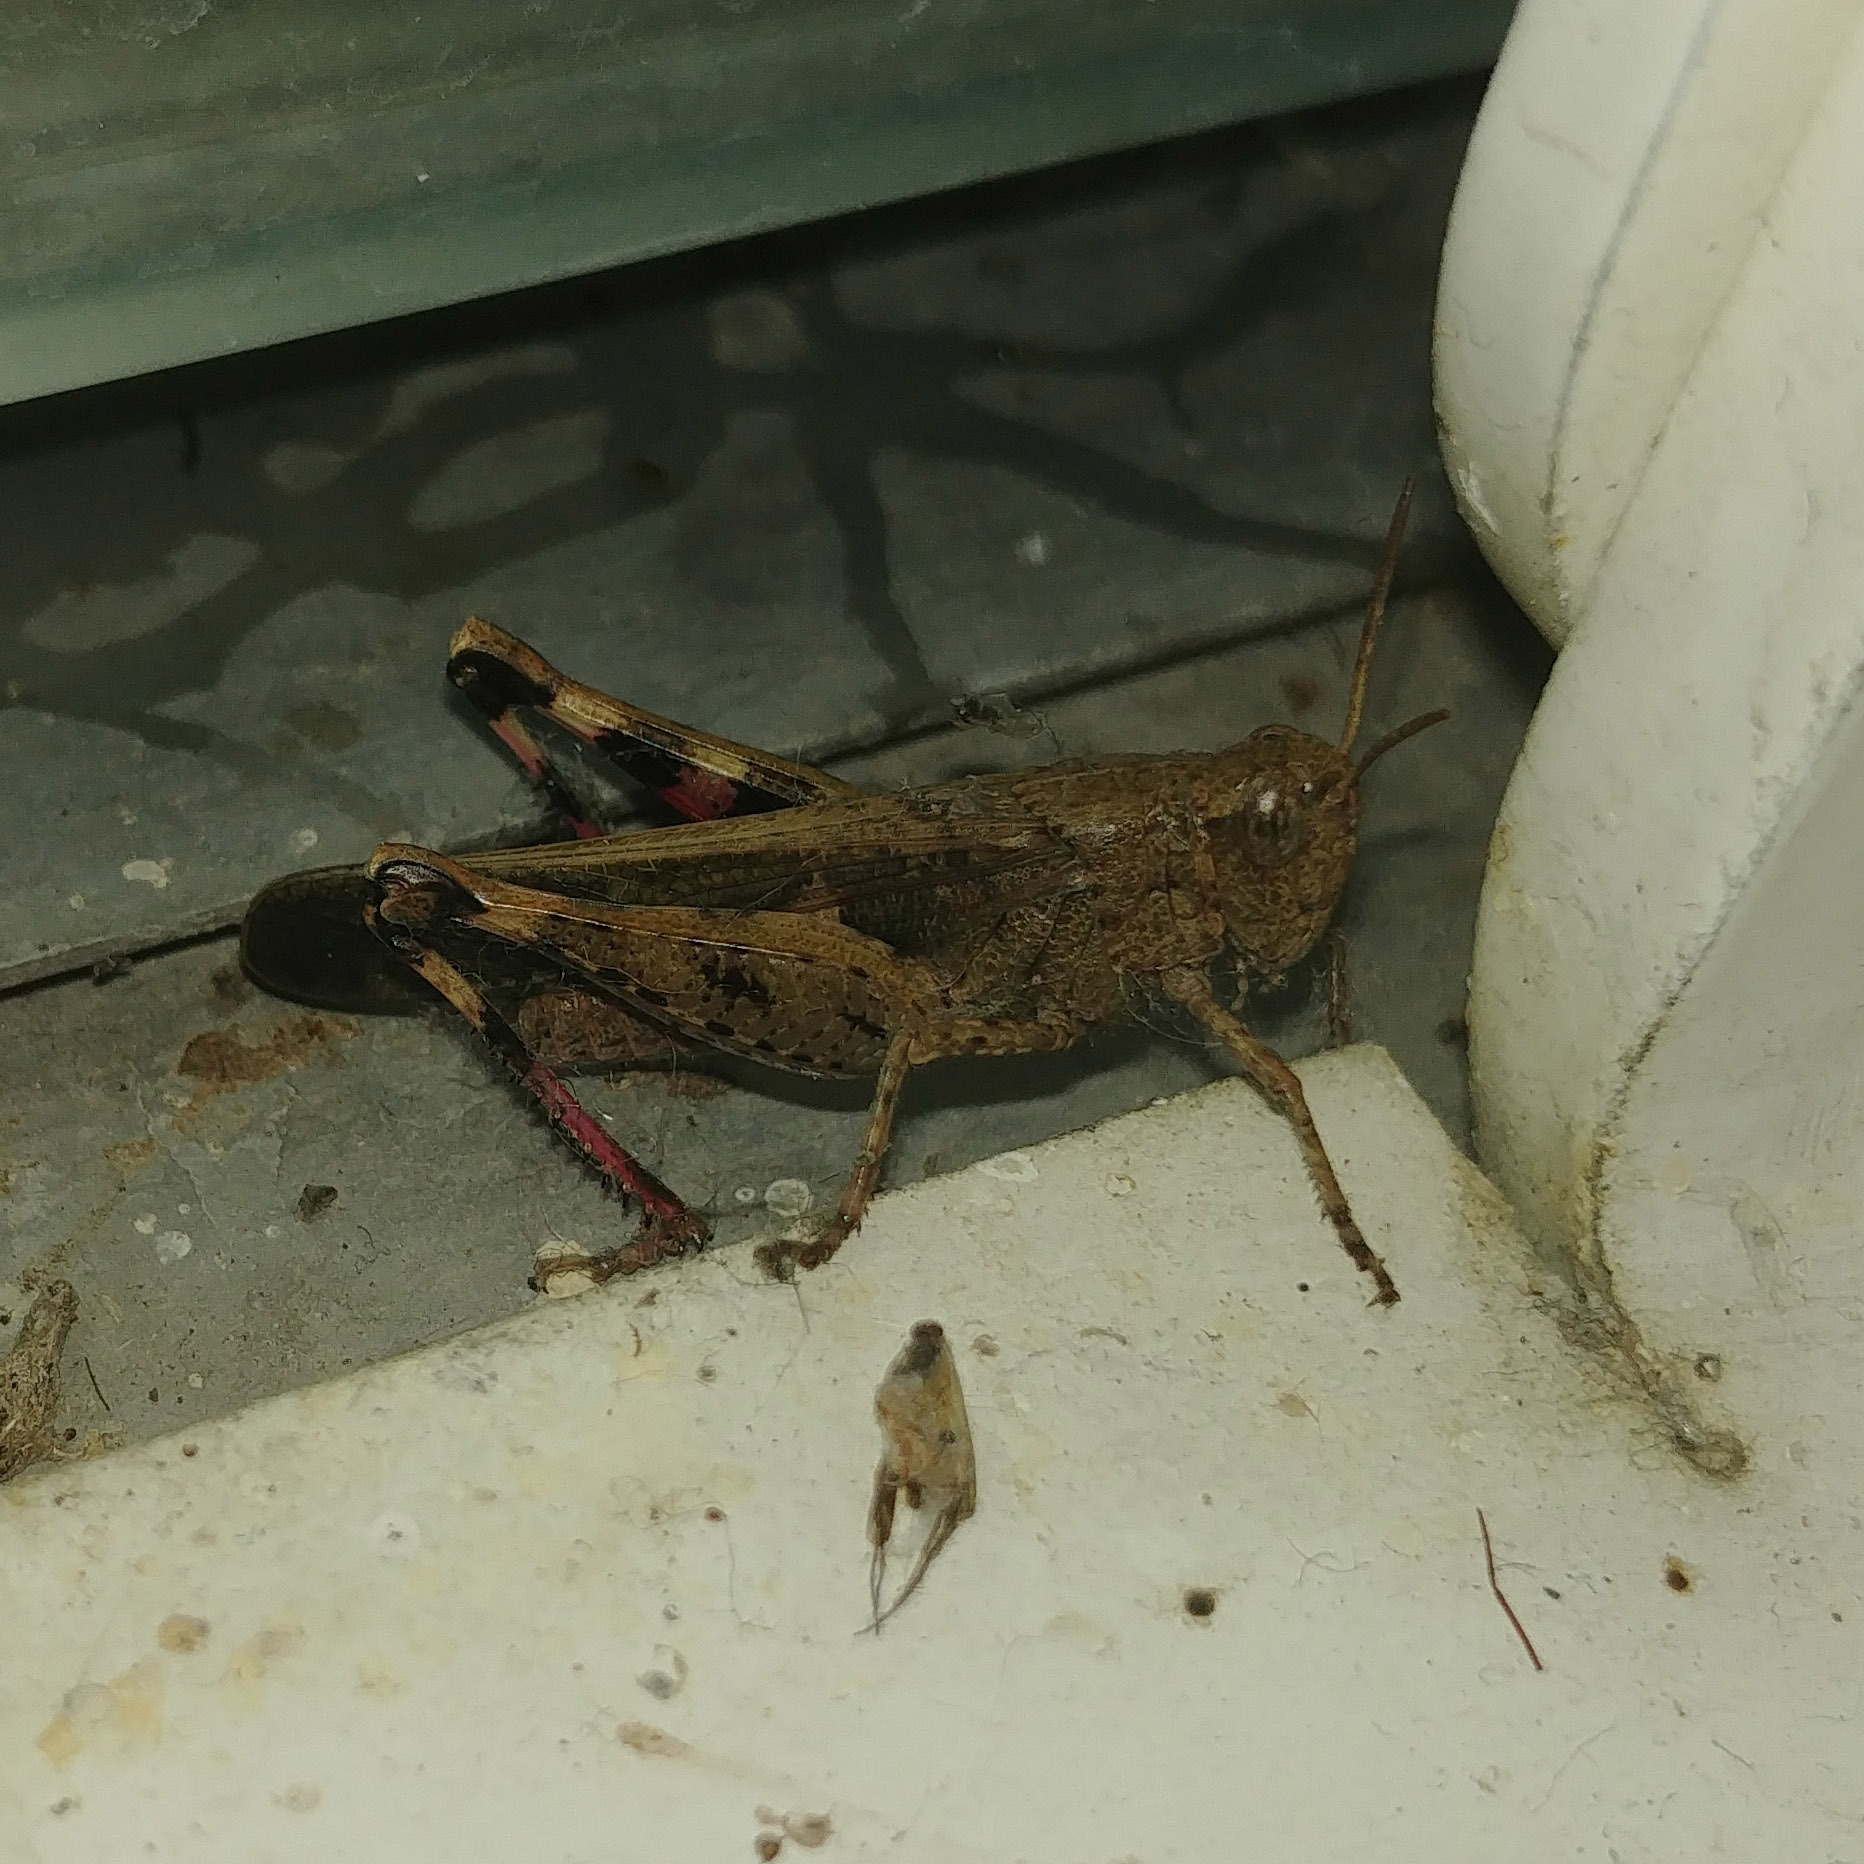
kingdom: Animalia
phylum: Arthropoda
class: Insecta
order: Orthoptera
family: Acrididae
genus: Aiolopus
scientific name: Aiolopus strepens
